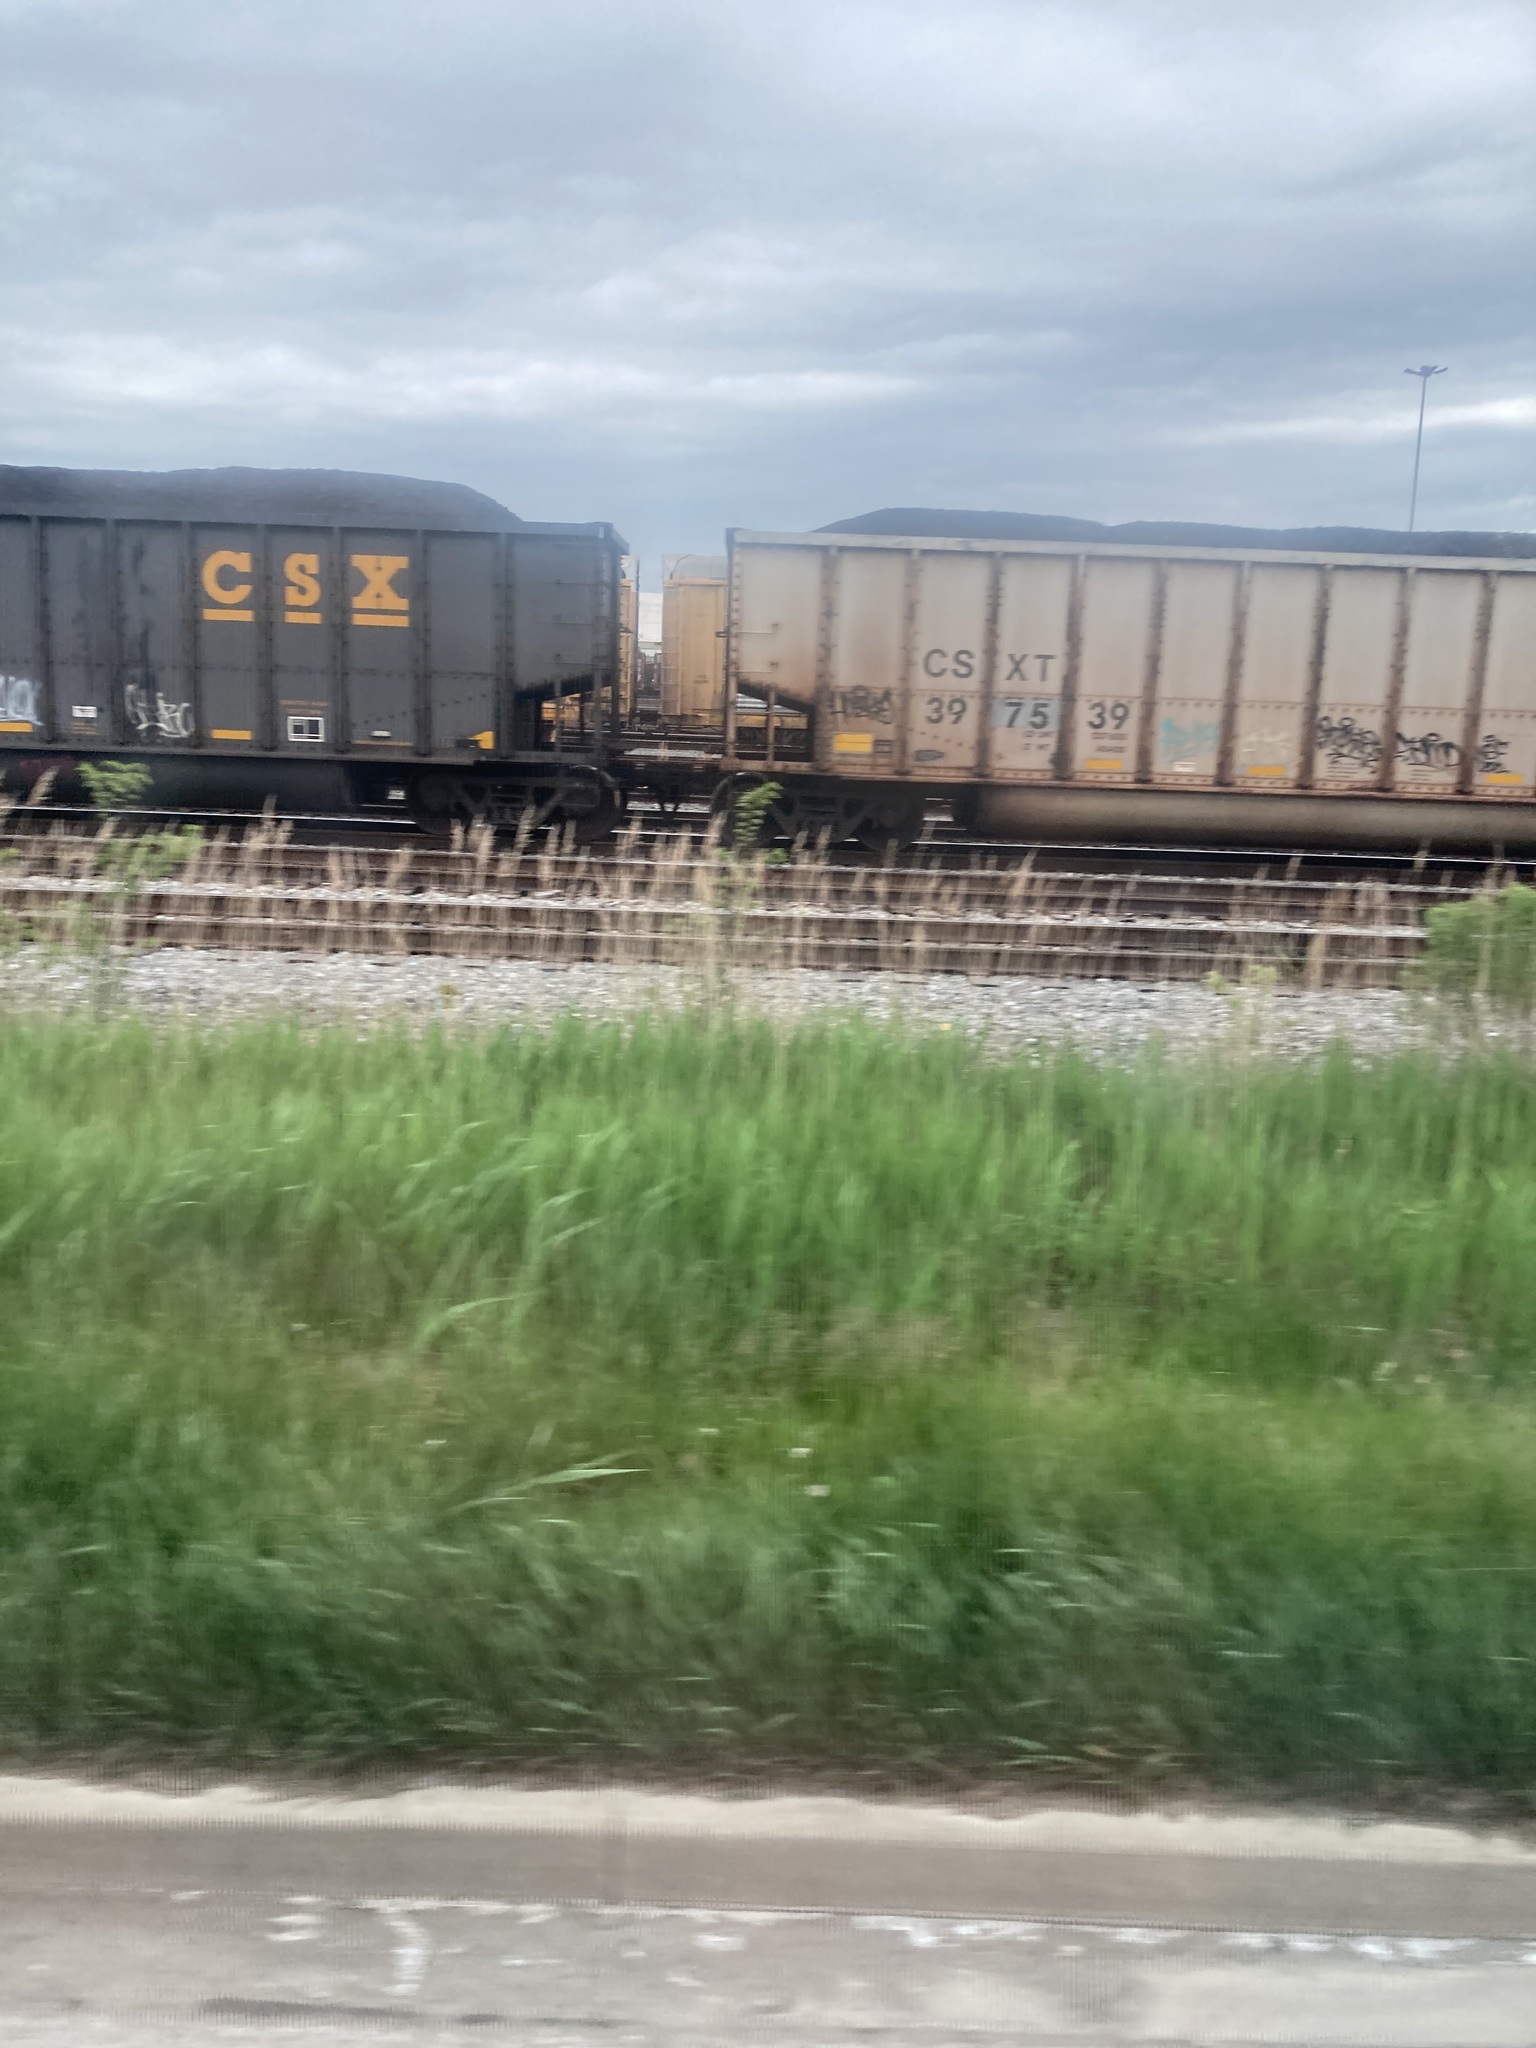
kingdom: Plantae
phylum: Tracheophyta
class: Liliopsida
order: Poales
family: Poaceae
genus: Phragmites
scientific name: Phragmites australis
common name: Common reed
